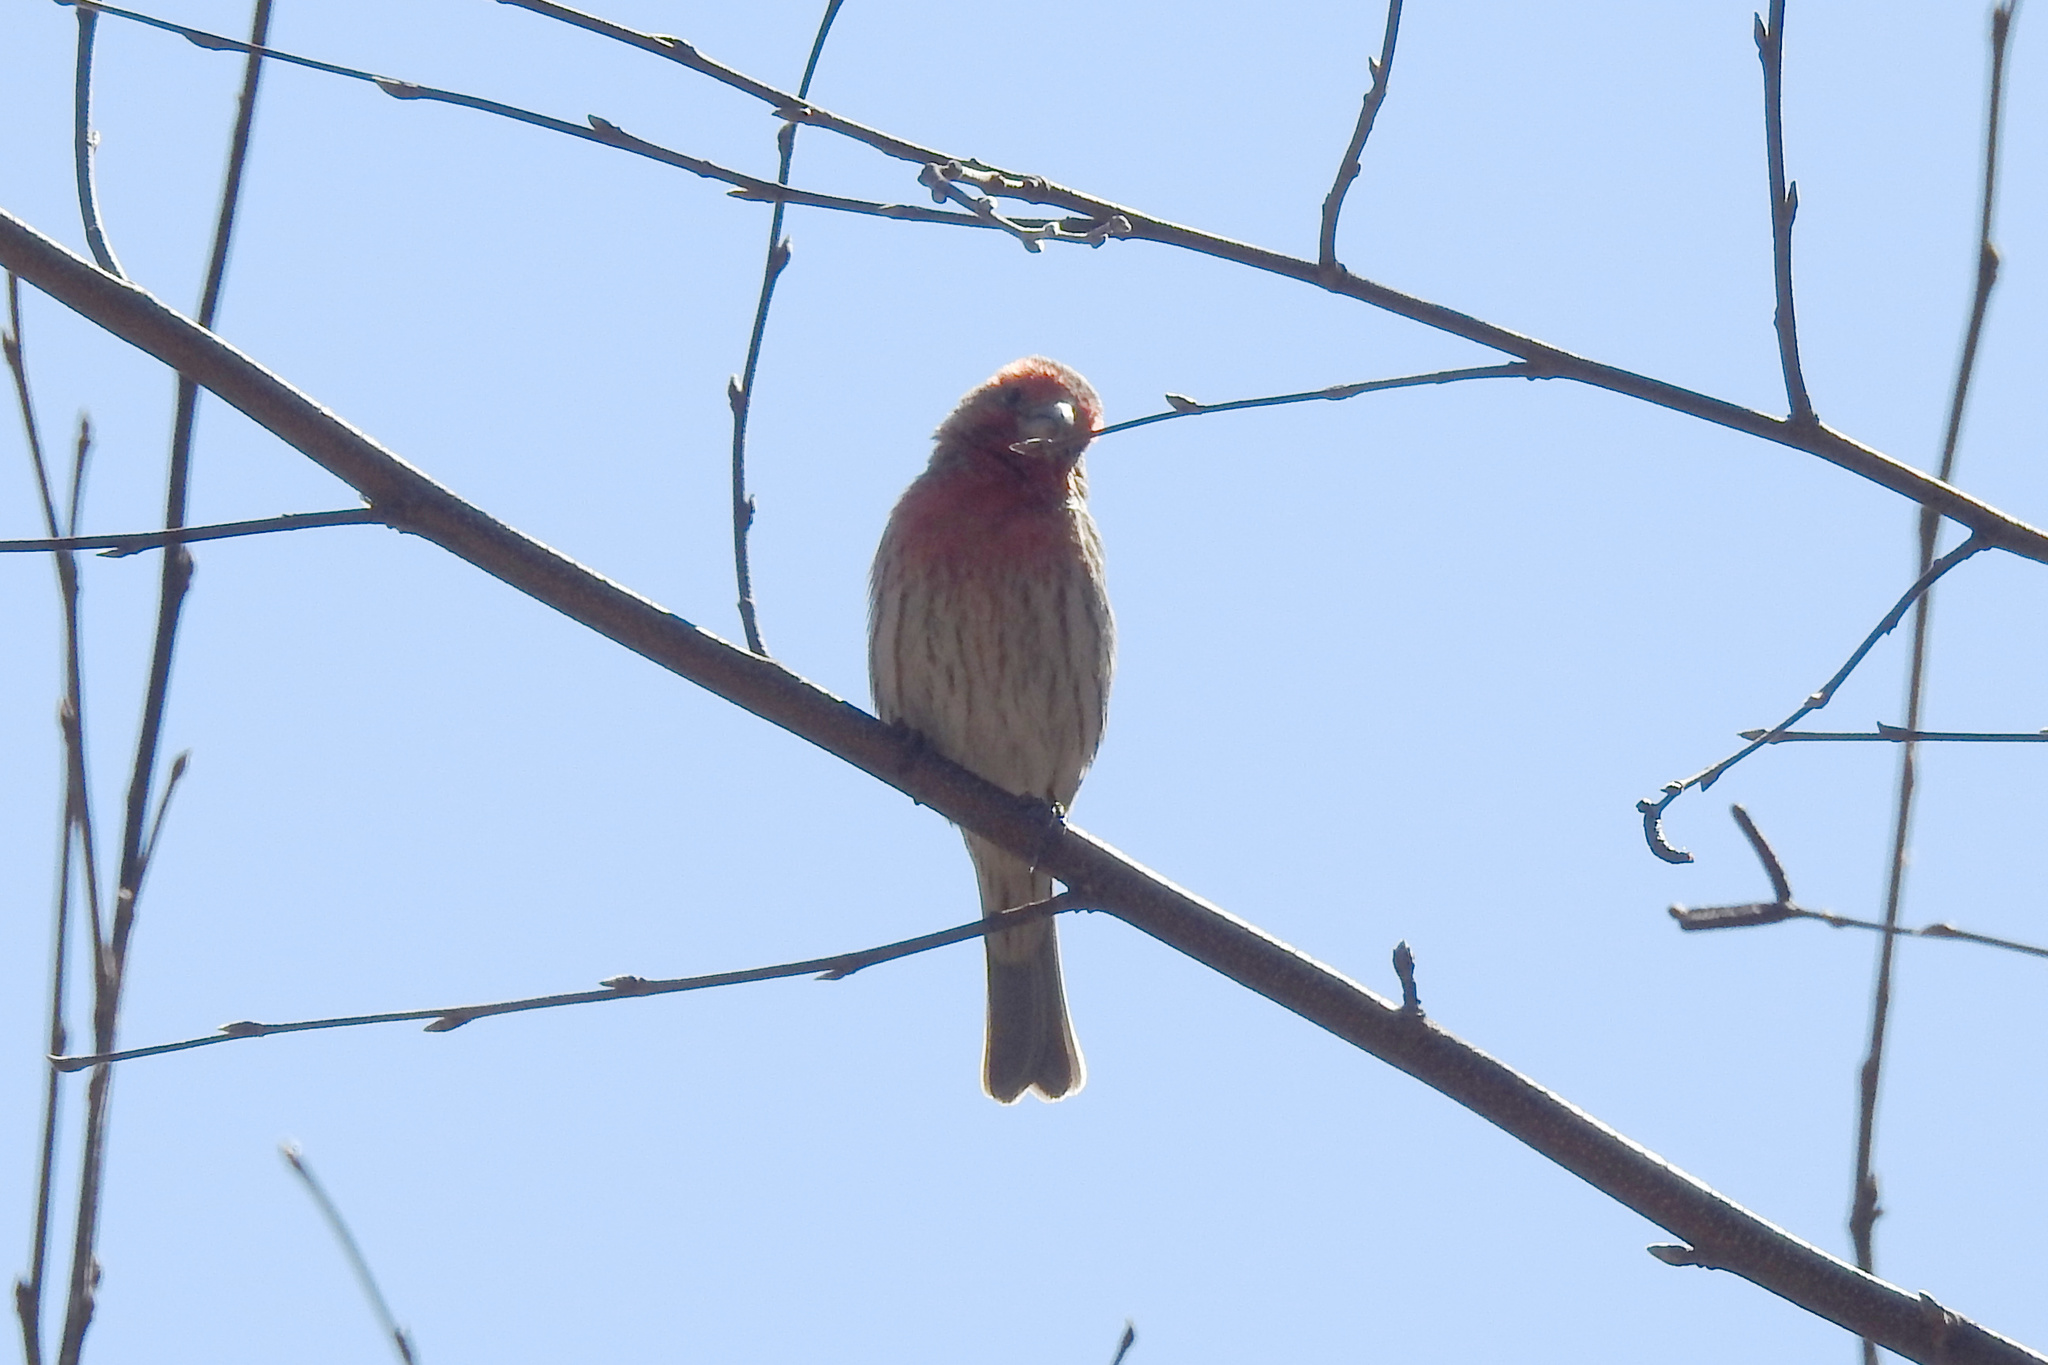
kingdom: Animalia
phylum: Chordata
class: Aves
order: Passeriformes
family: Fringillidae
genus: Haemorhous
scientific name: Haemorhous mexicanus
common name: House finch
